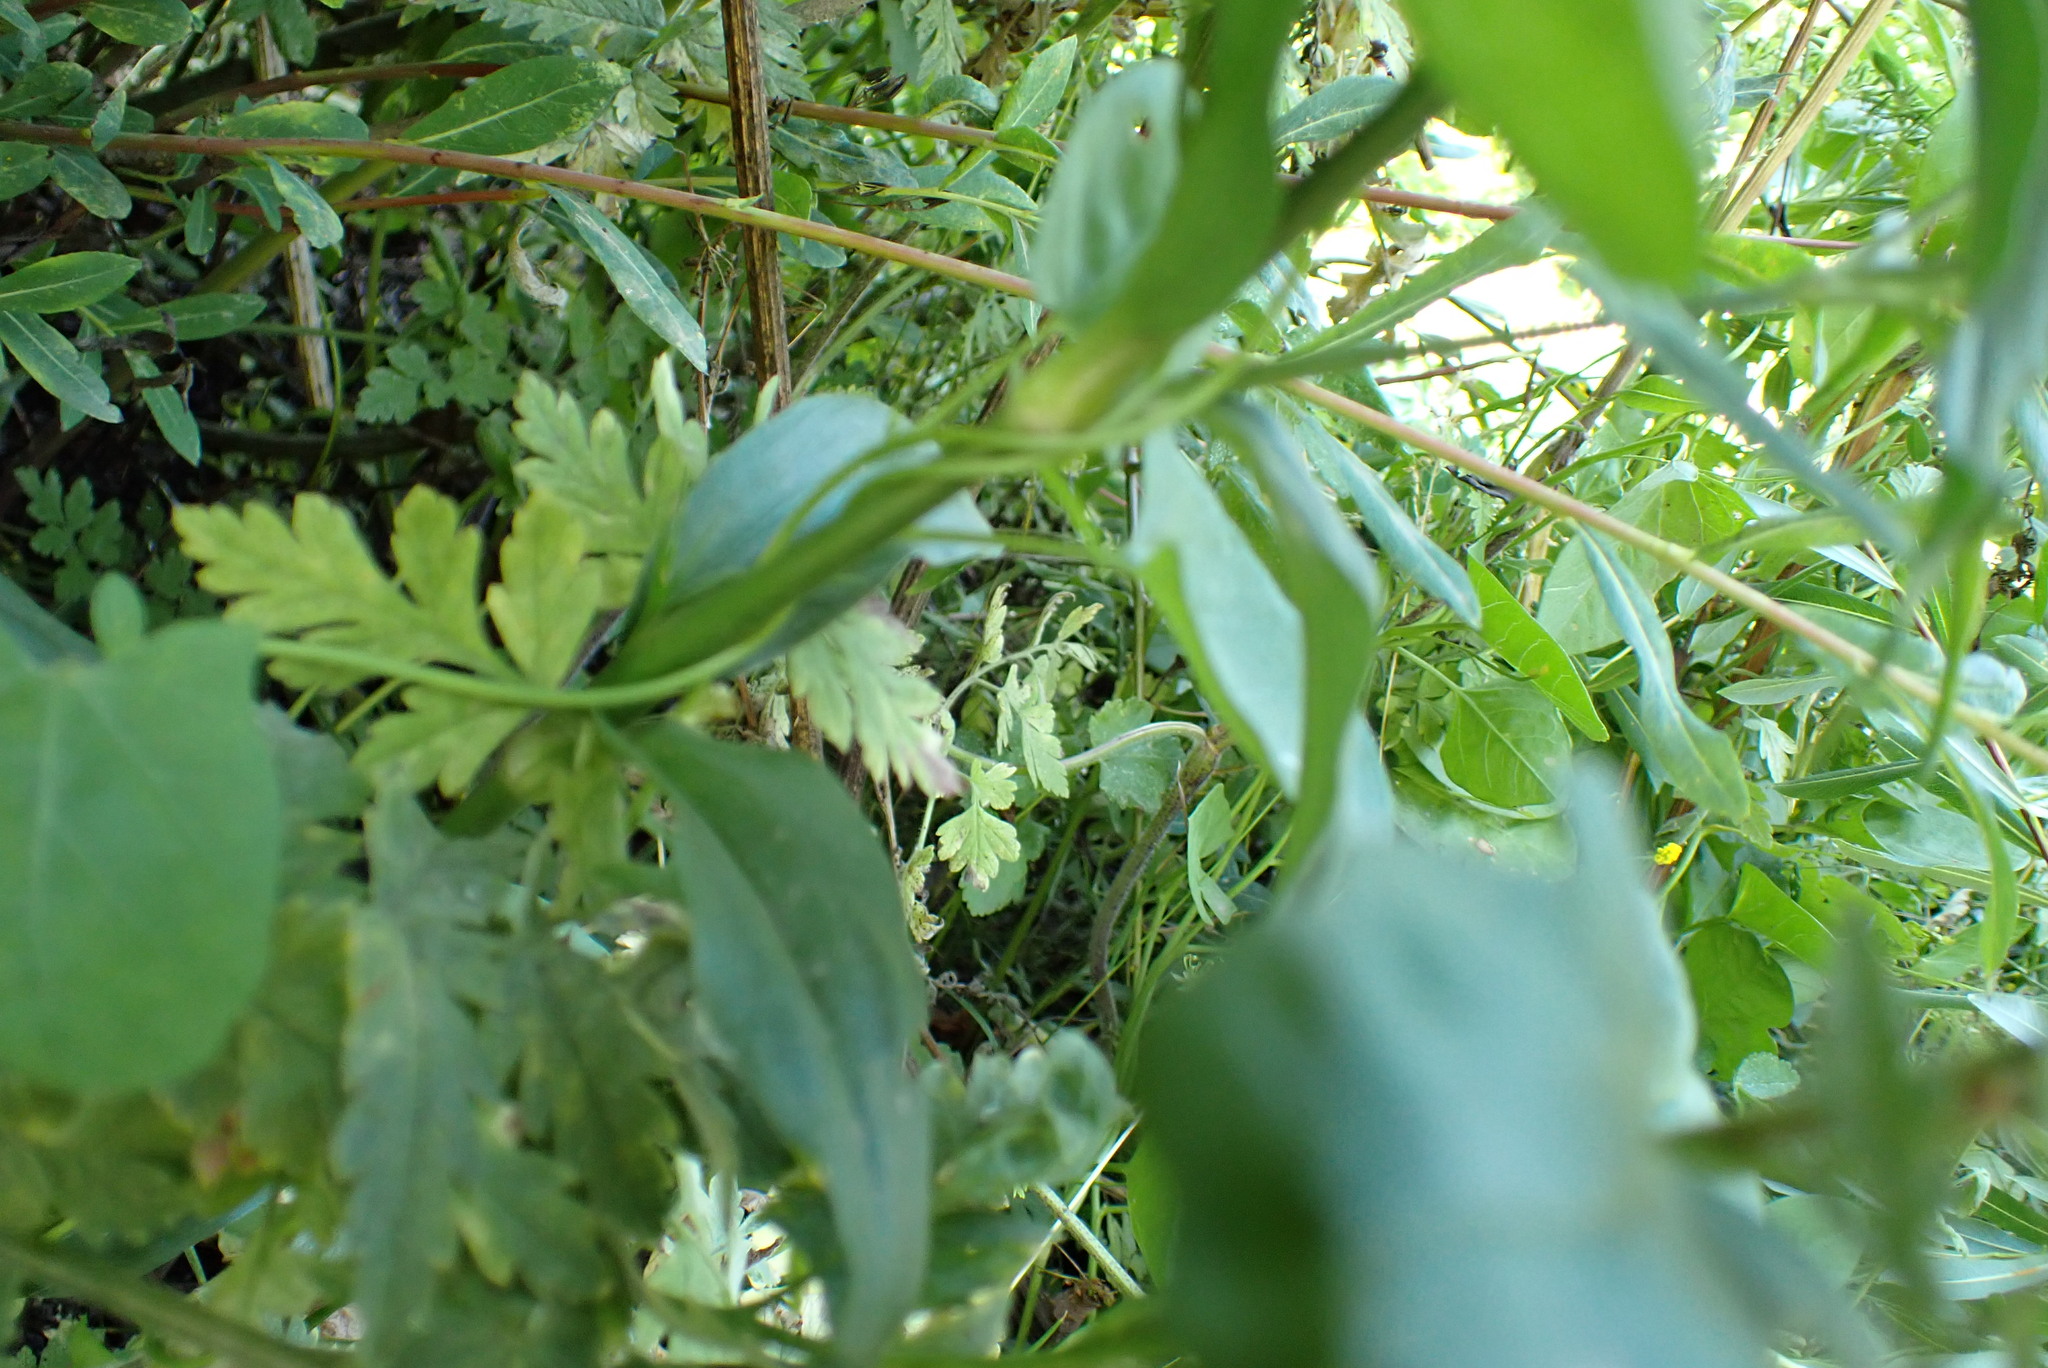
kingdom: Plantae
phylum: Tracheophyta
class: Magnoliopsida
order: Caryophyllales
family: Caryophyllaceae
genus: Dianthus
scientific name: Dianthus barbatus
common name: Sweet-william
